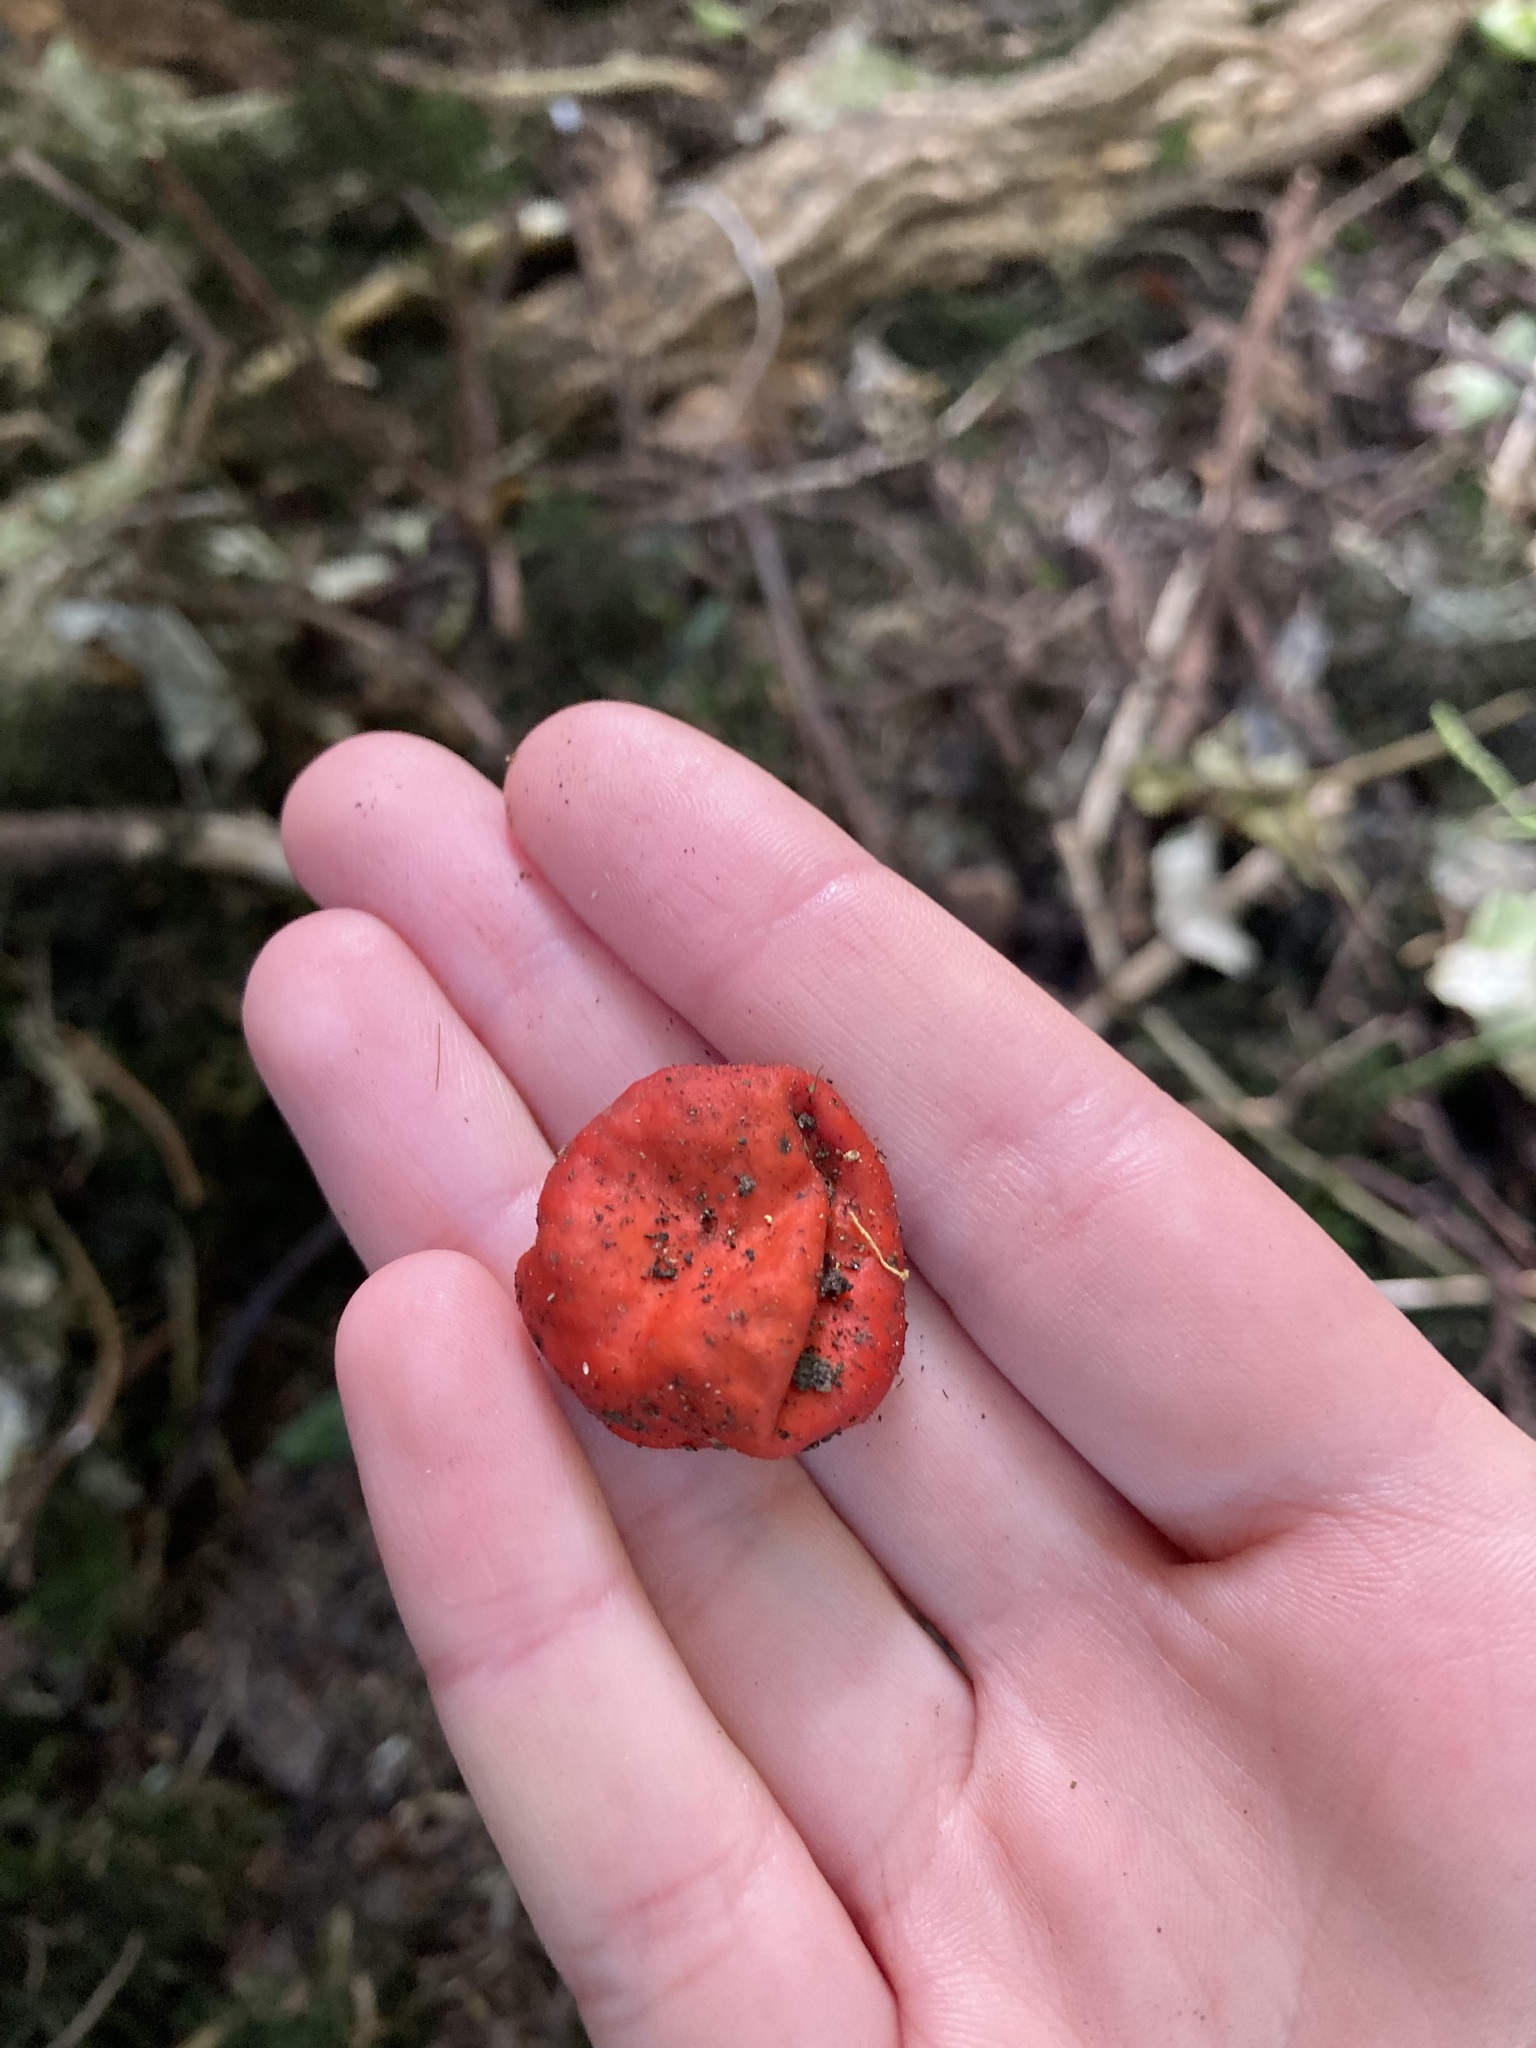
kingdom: Fungi
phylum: Ascomycota
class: Pezizomycetes
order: Pezizales
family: Pyronemataceae
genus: Paurocotylis
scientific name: Paurocotylis pila
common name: Scarlet berry truffle
